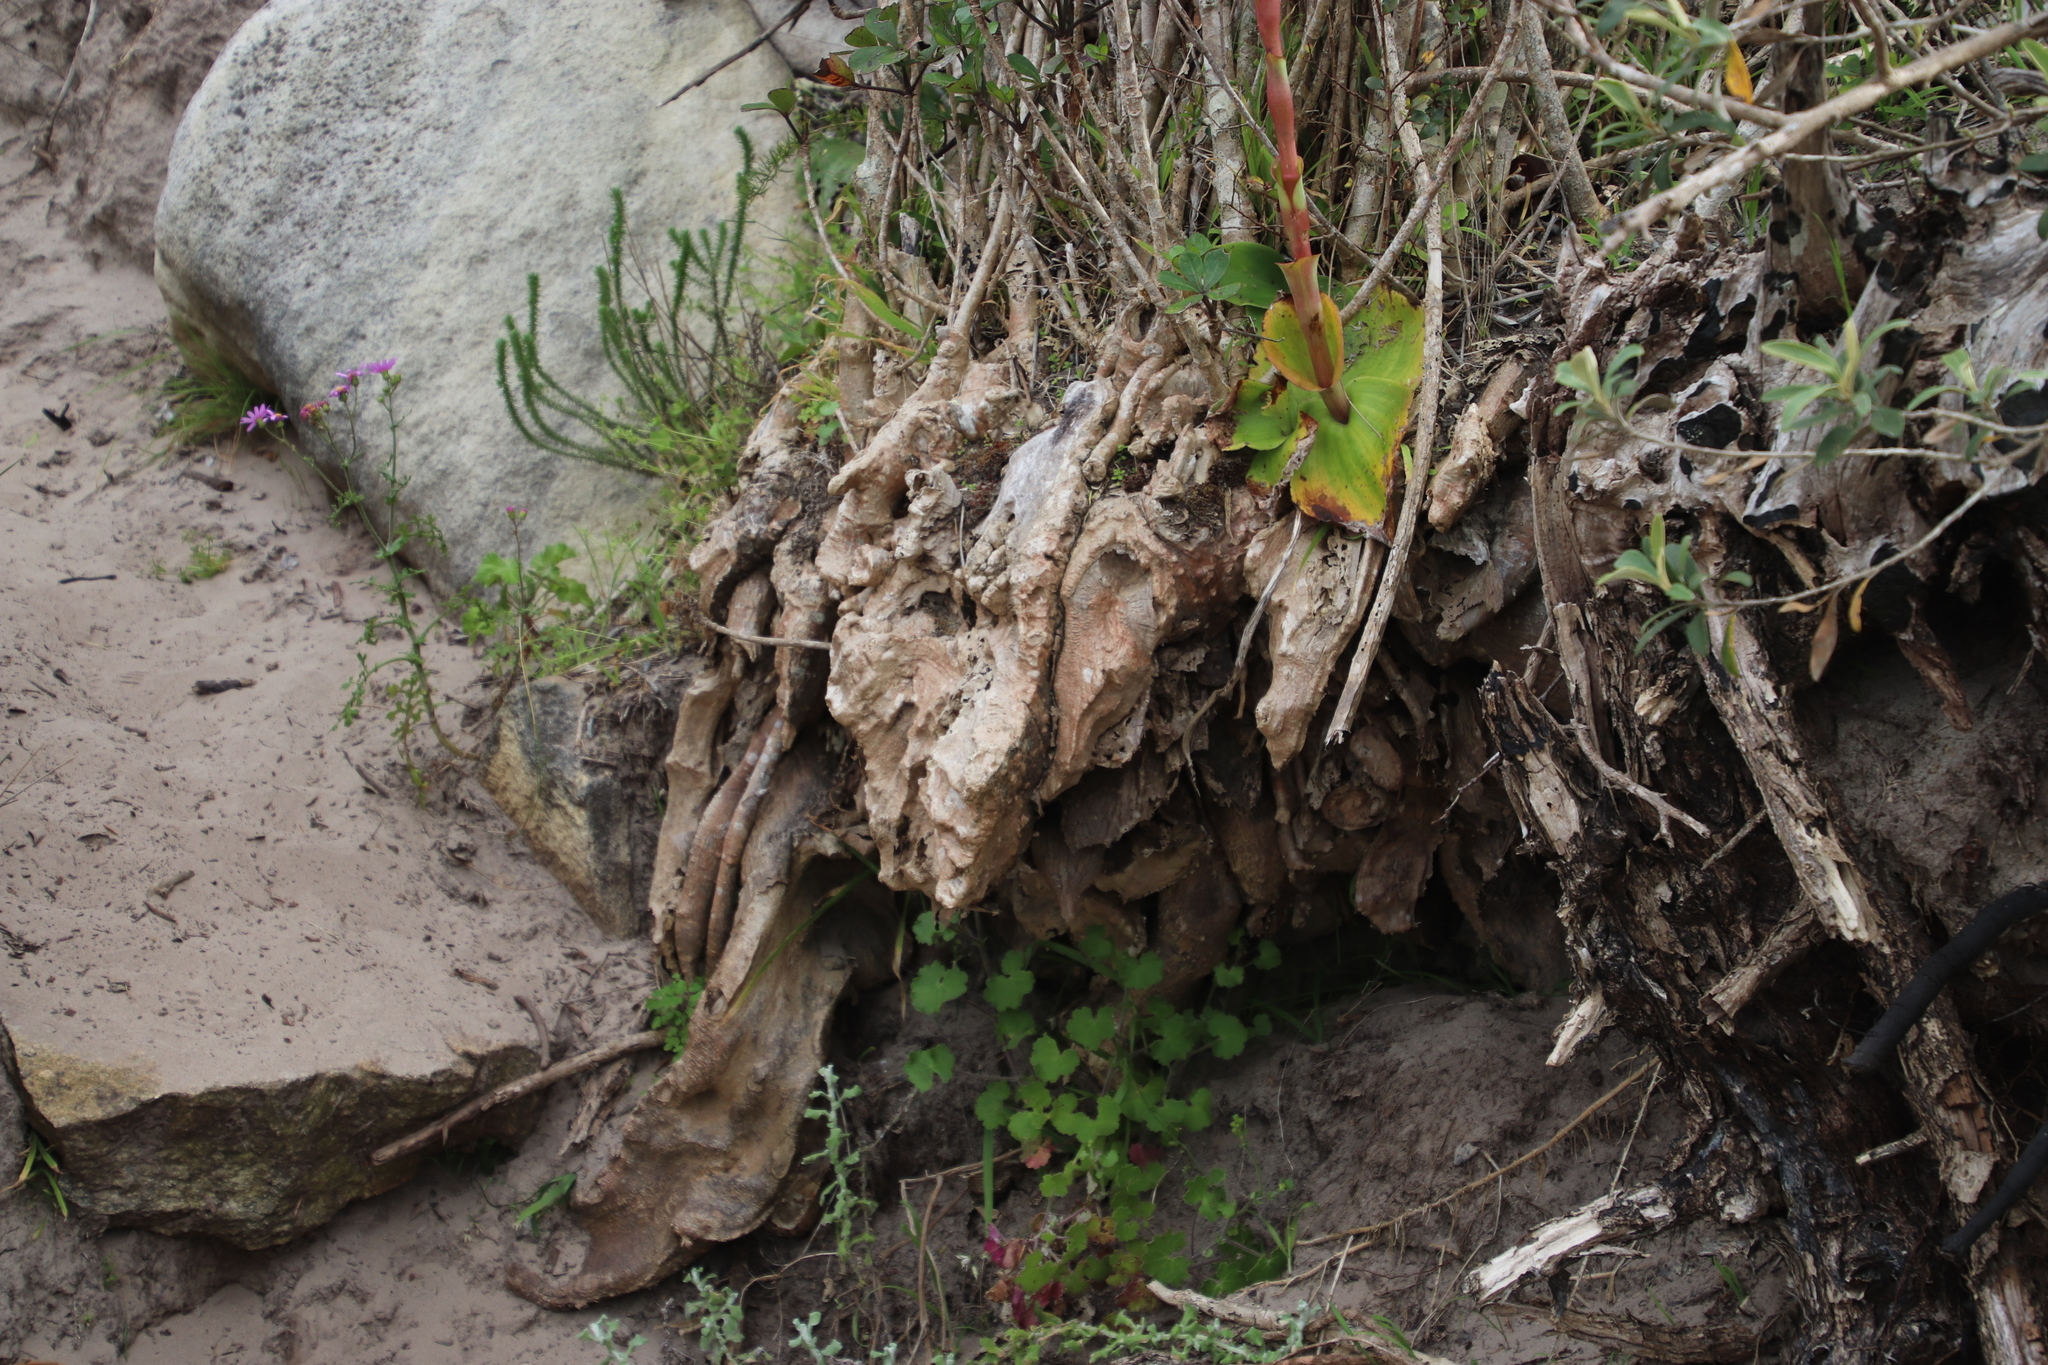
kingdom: Plantae
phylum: Tracheophyta
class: Magnoliopsida
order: Apiales
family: Araliaceae
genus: Cussonia
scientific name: Cussonia thyrsiflora
